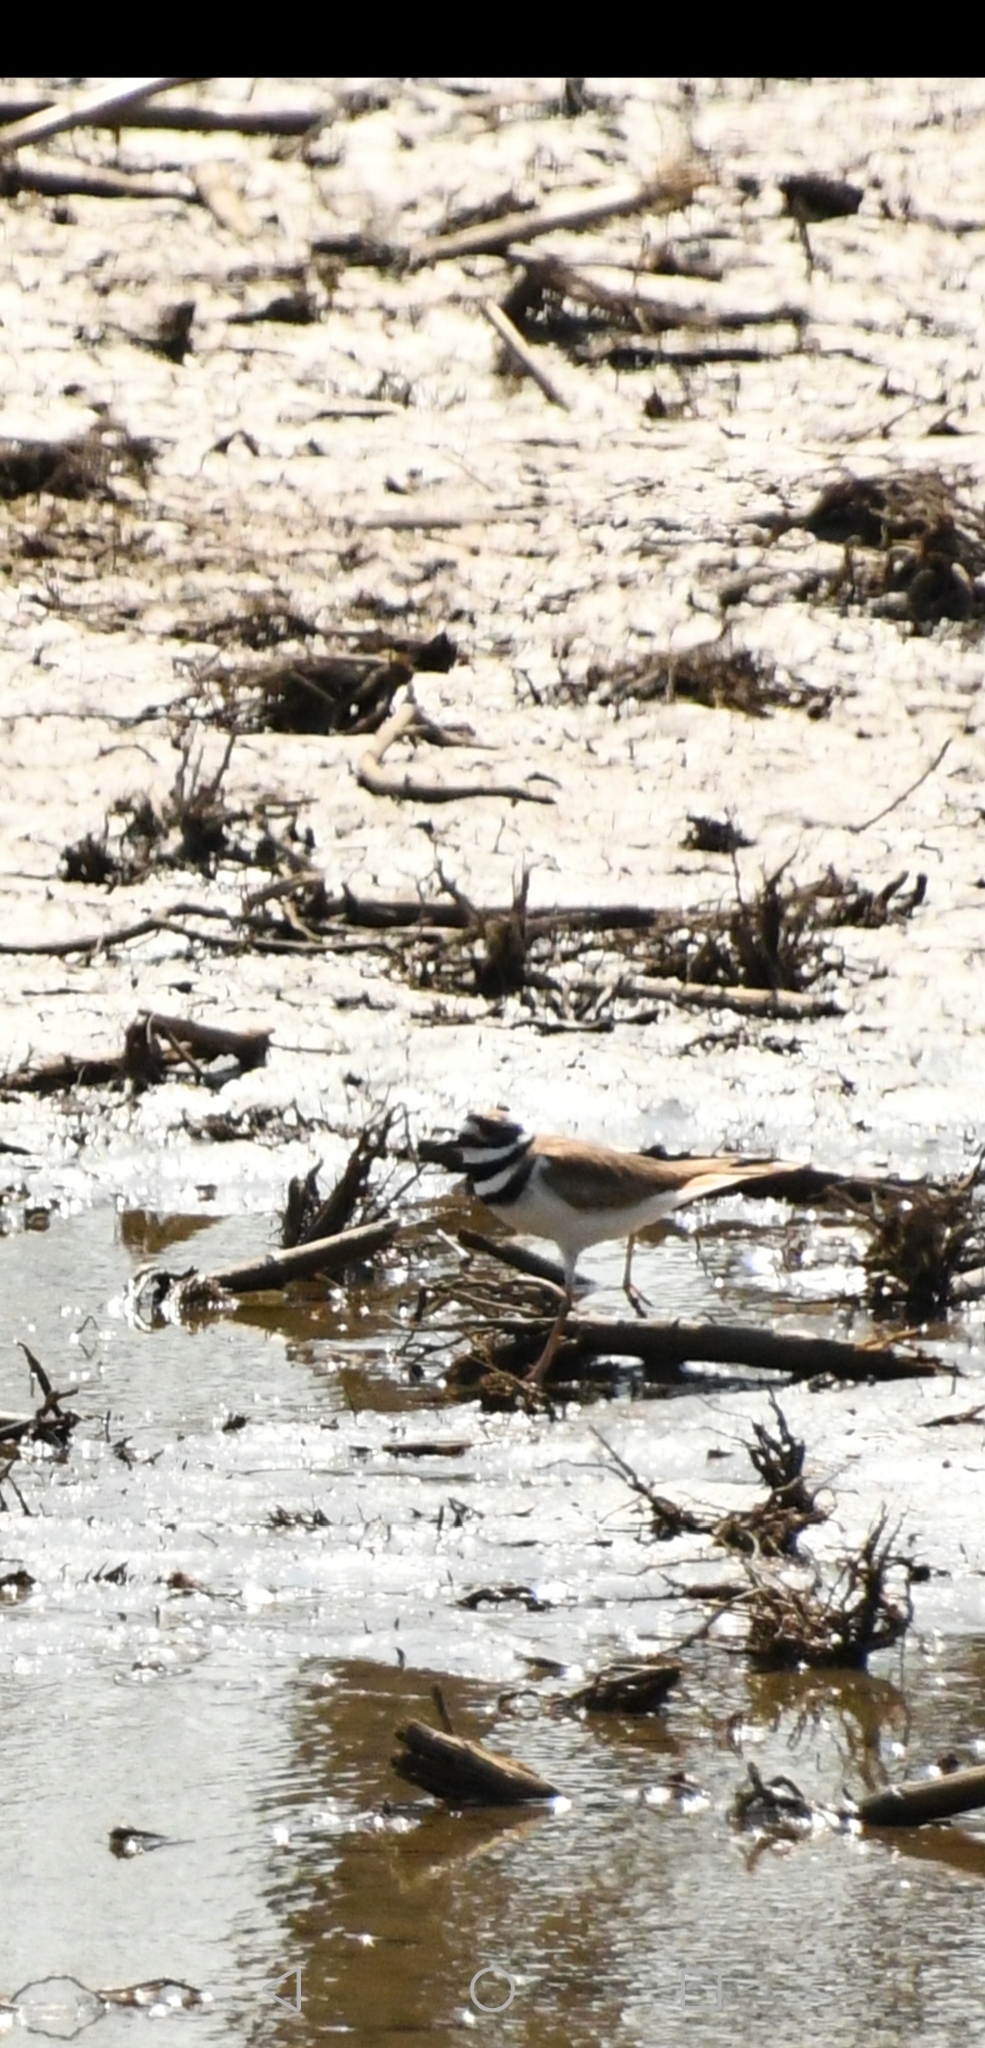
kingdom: Animalia
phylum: Chordata
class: Aves
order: Charadriiformes
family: Charadriidae
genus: Charadrius
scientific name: Charadrius vociferus
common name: Killdeer
